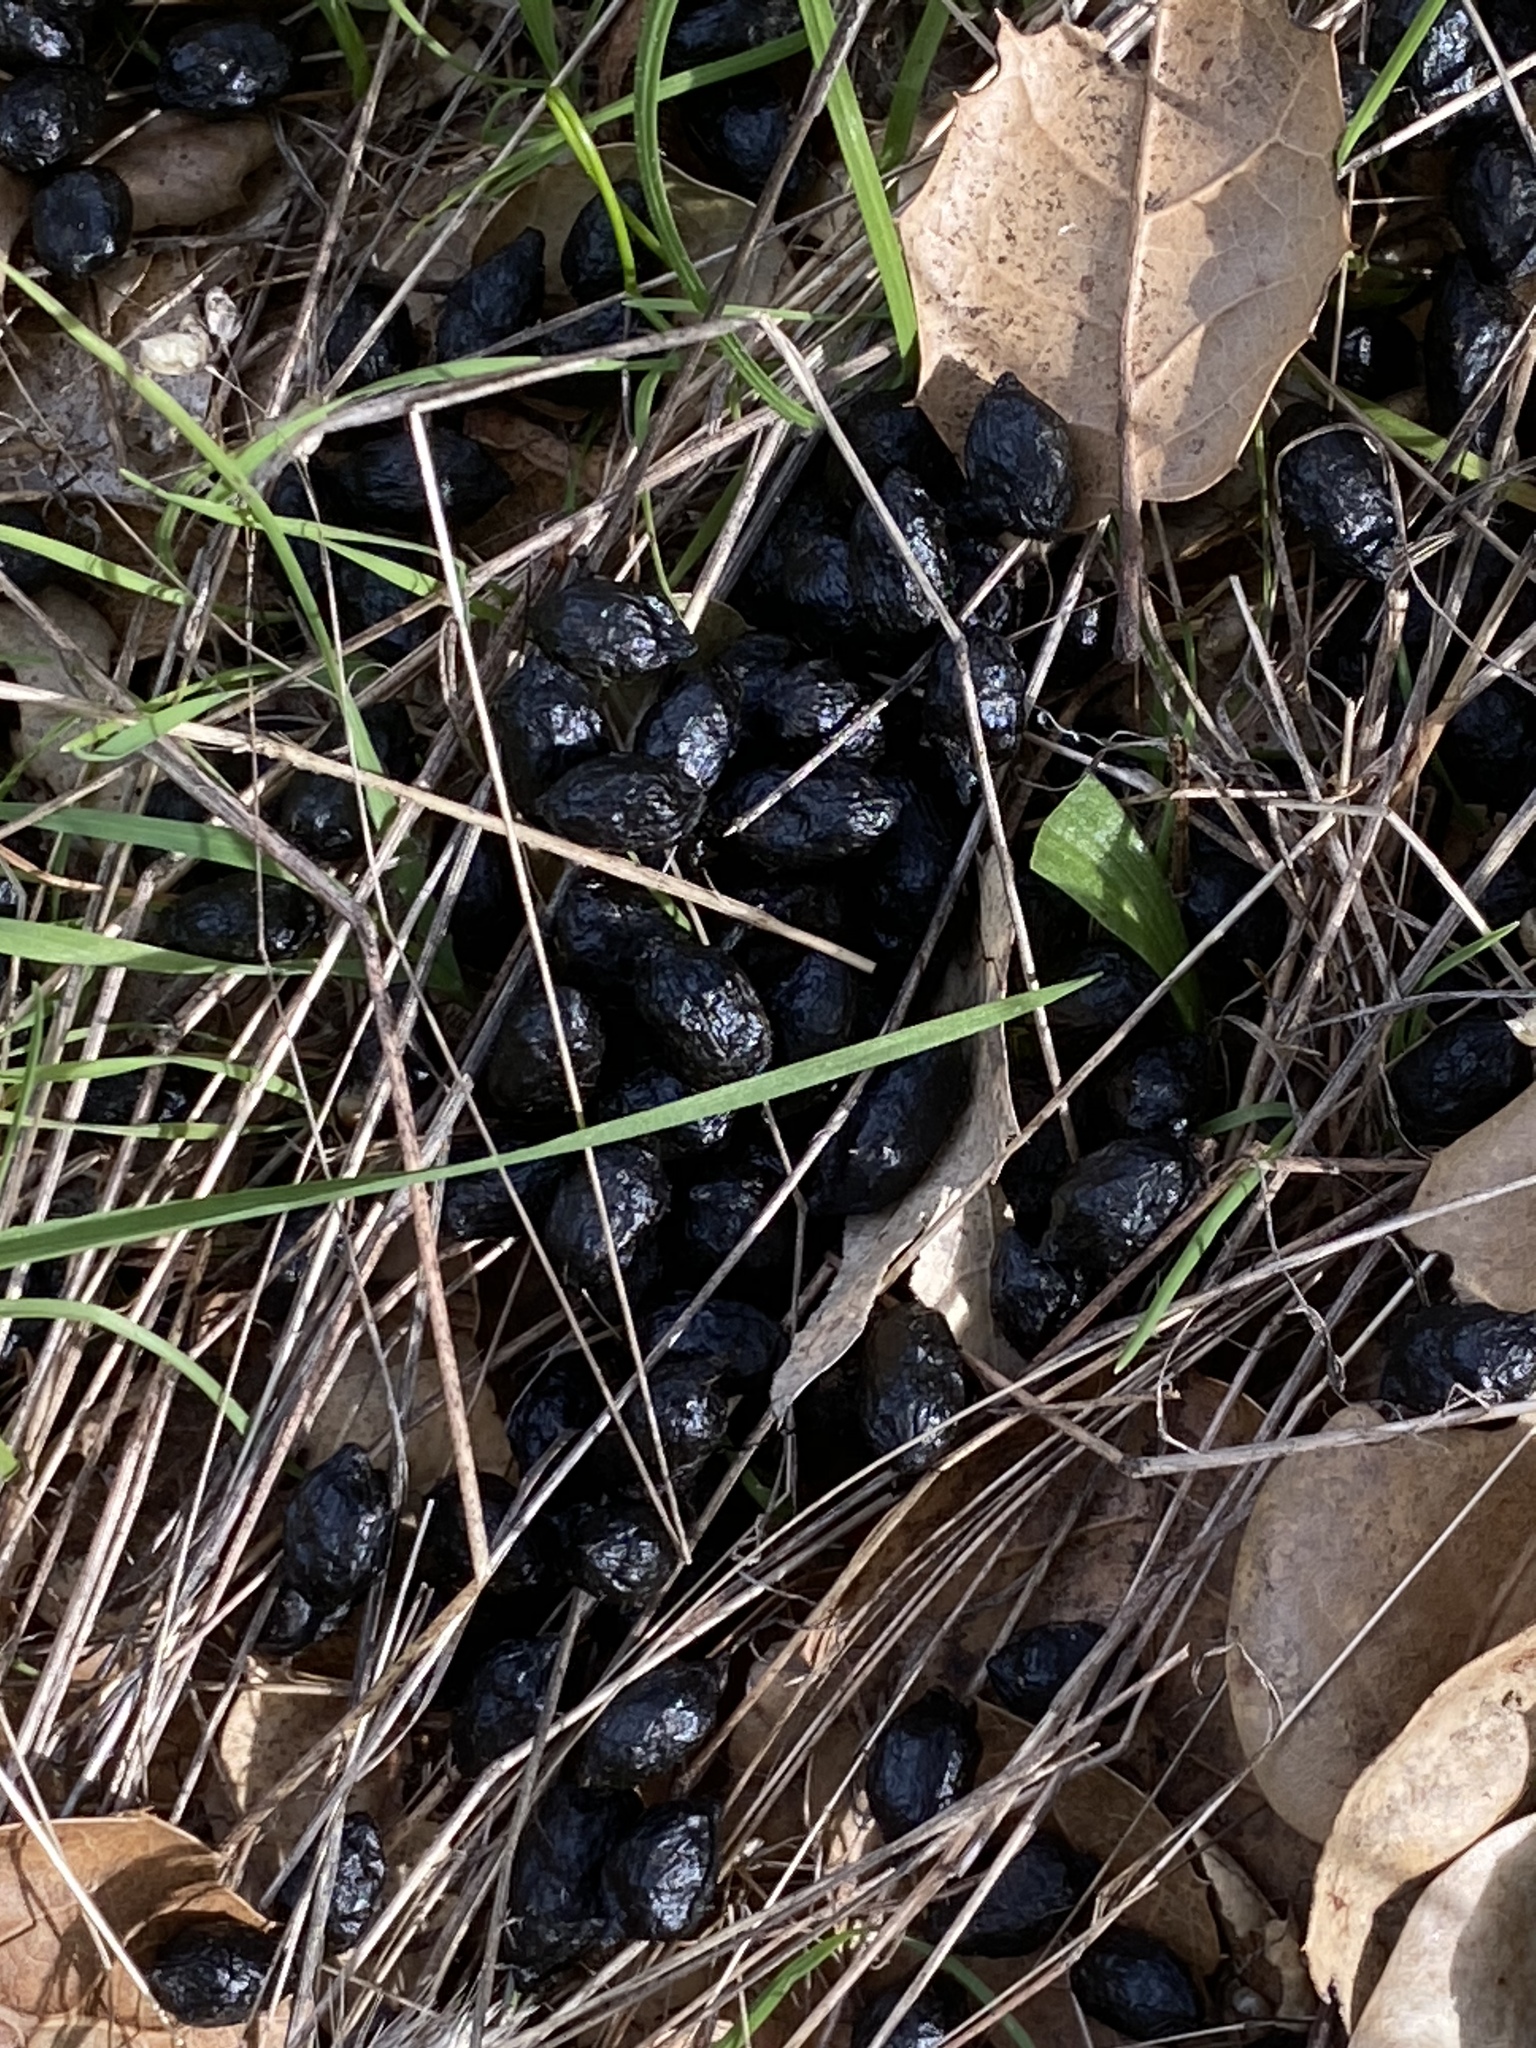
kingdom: Animalia
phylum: Chordata
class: Mammalia
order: Artiodactyla
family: Cervidae
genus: Odocoileus
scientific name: Odocoileus hemionus
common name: Mule deer
